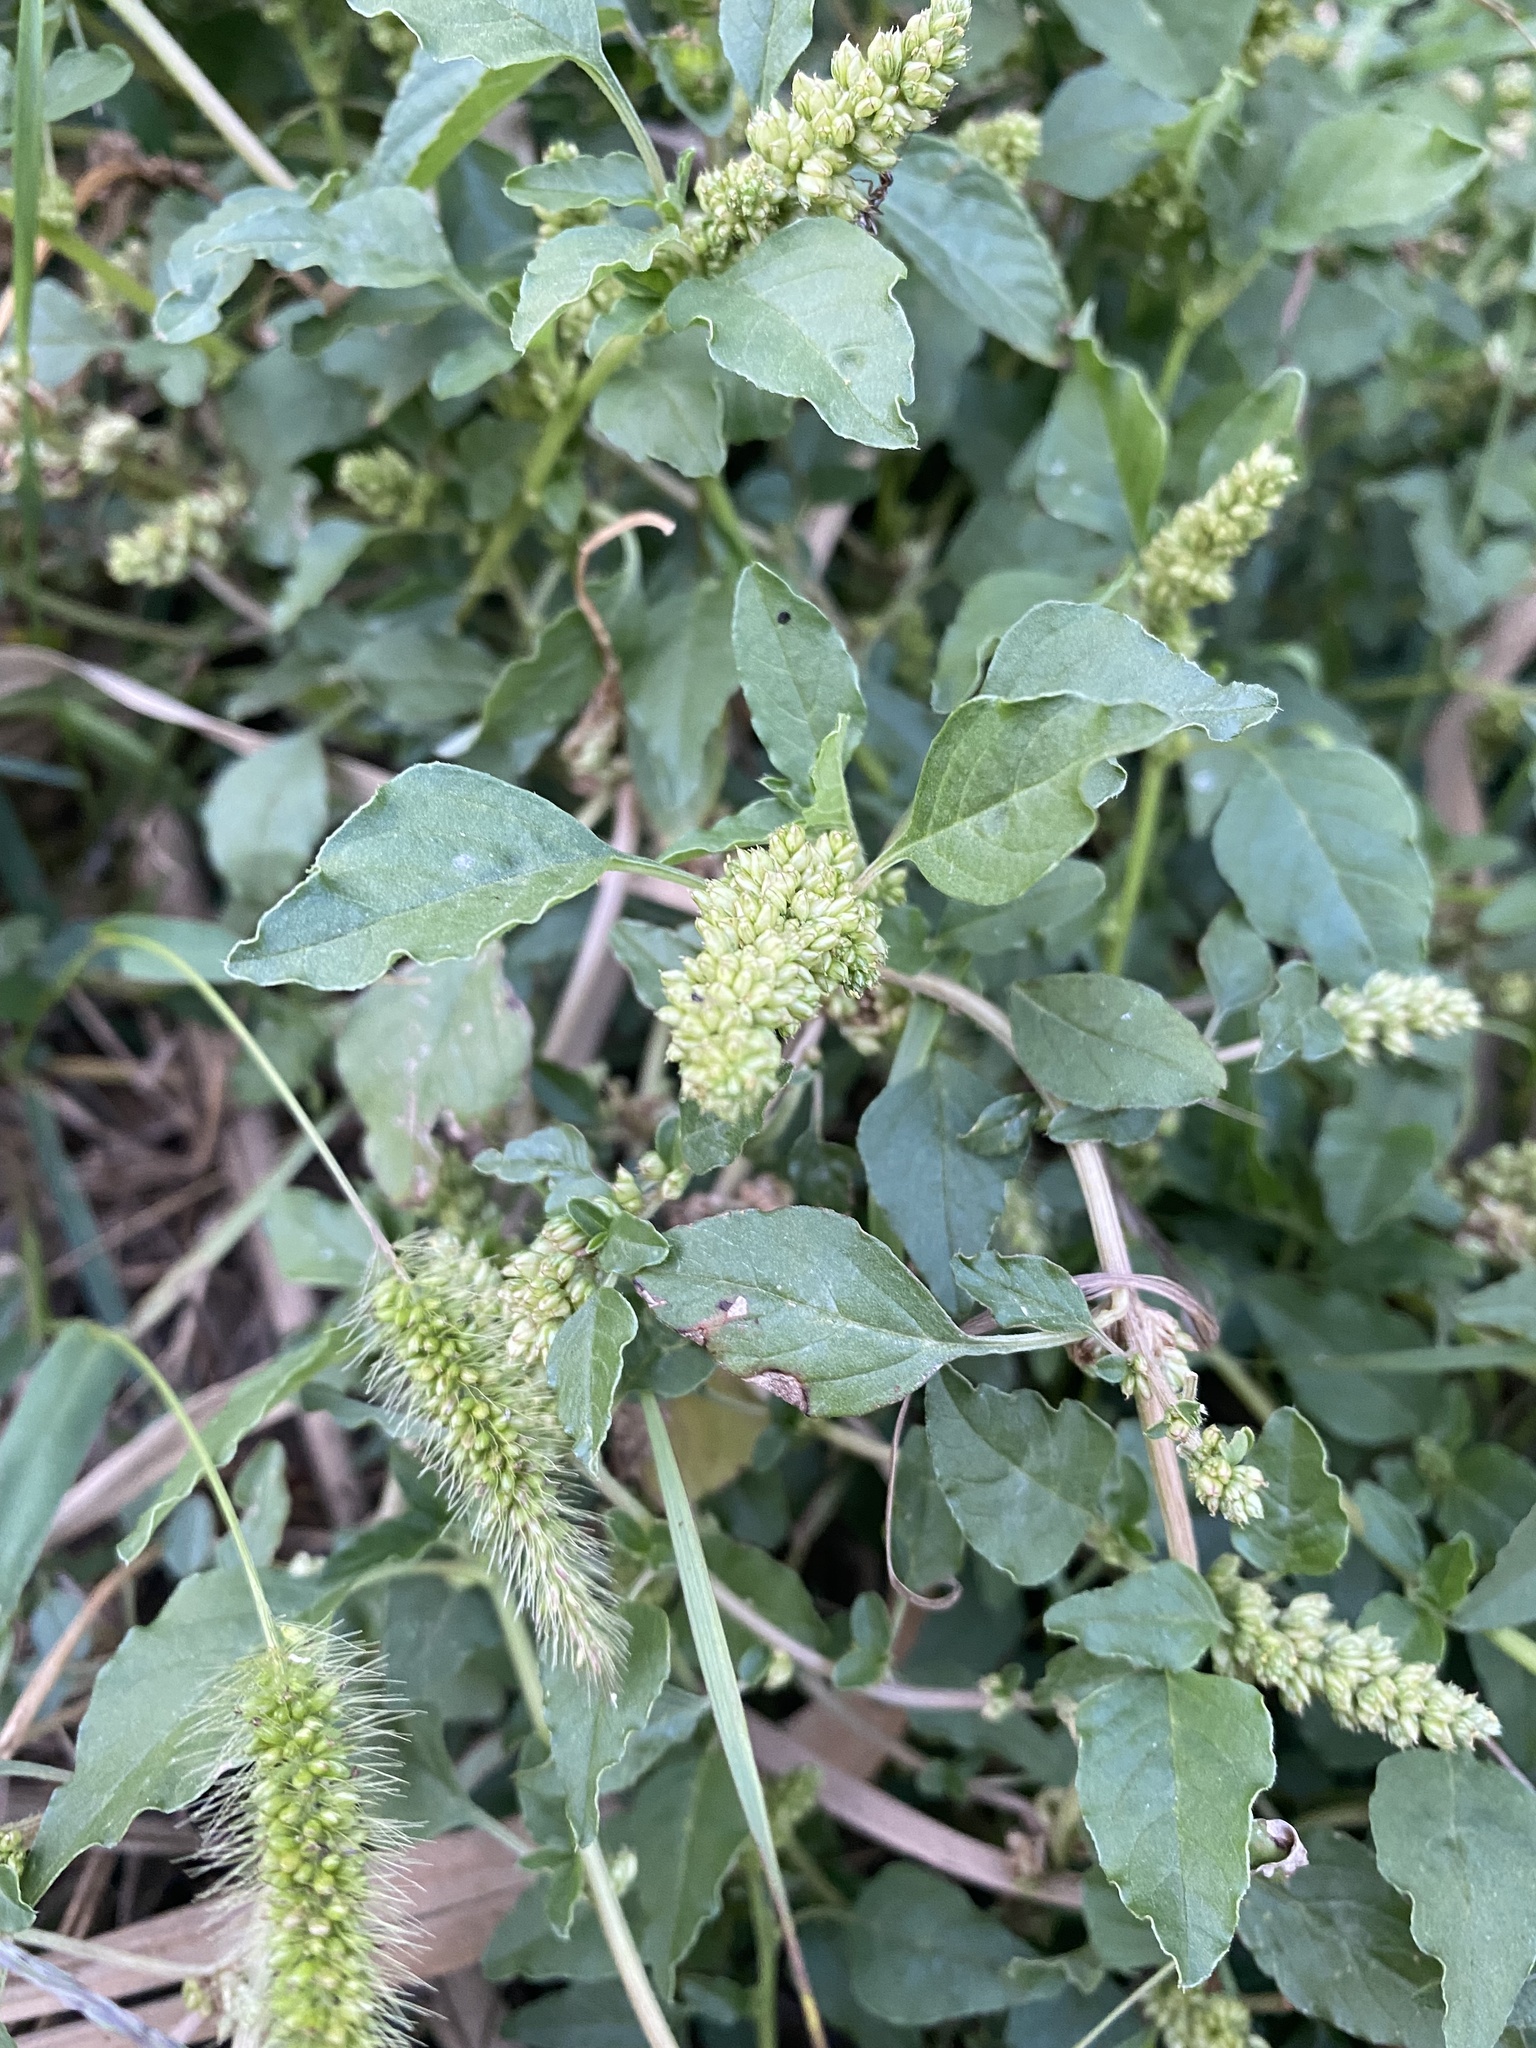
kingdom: Plantae
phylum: Tracheophyta
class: Magnoliopsida
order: Caryophyllales
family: Amaranthaceae
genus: Amaranthus
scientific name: Amaranthus retroflexus
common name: Redroot amaranth
